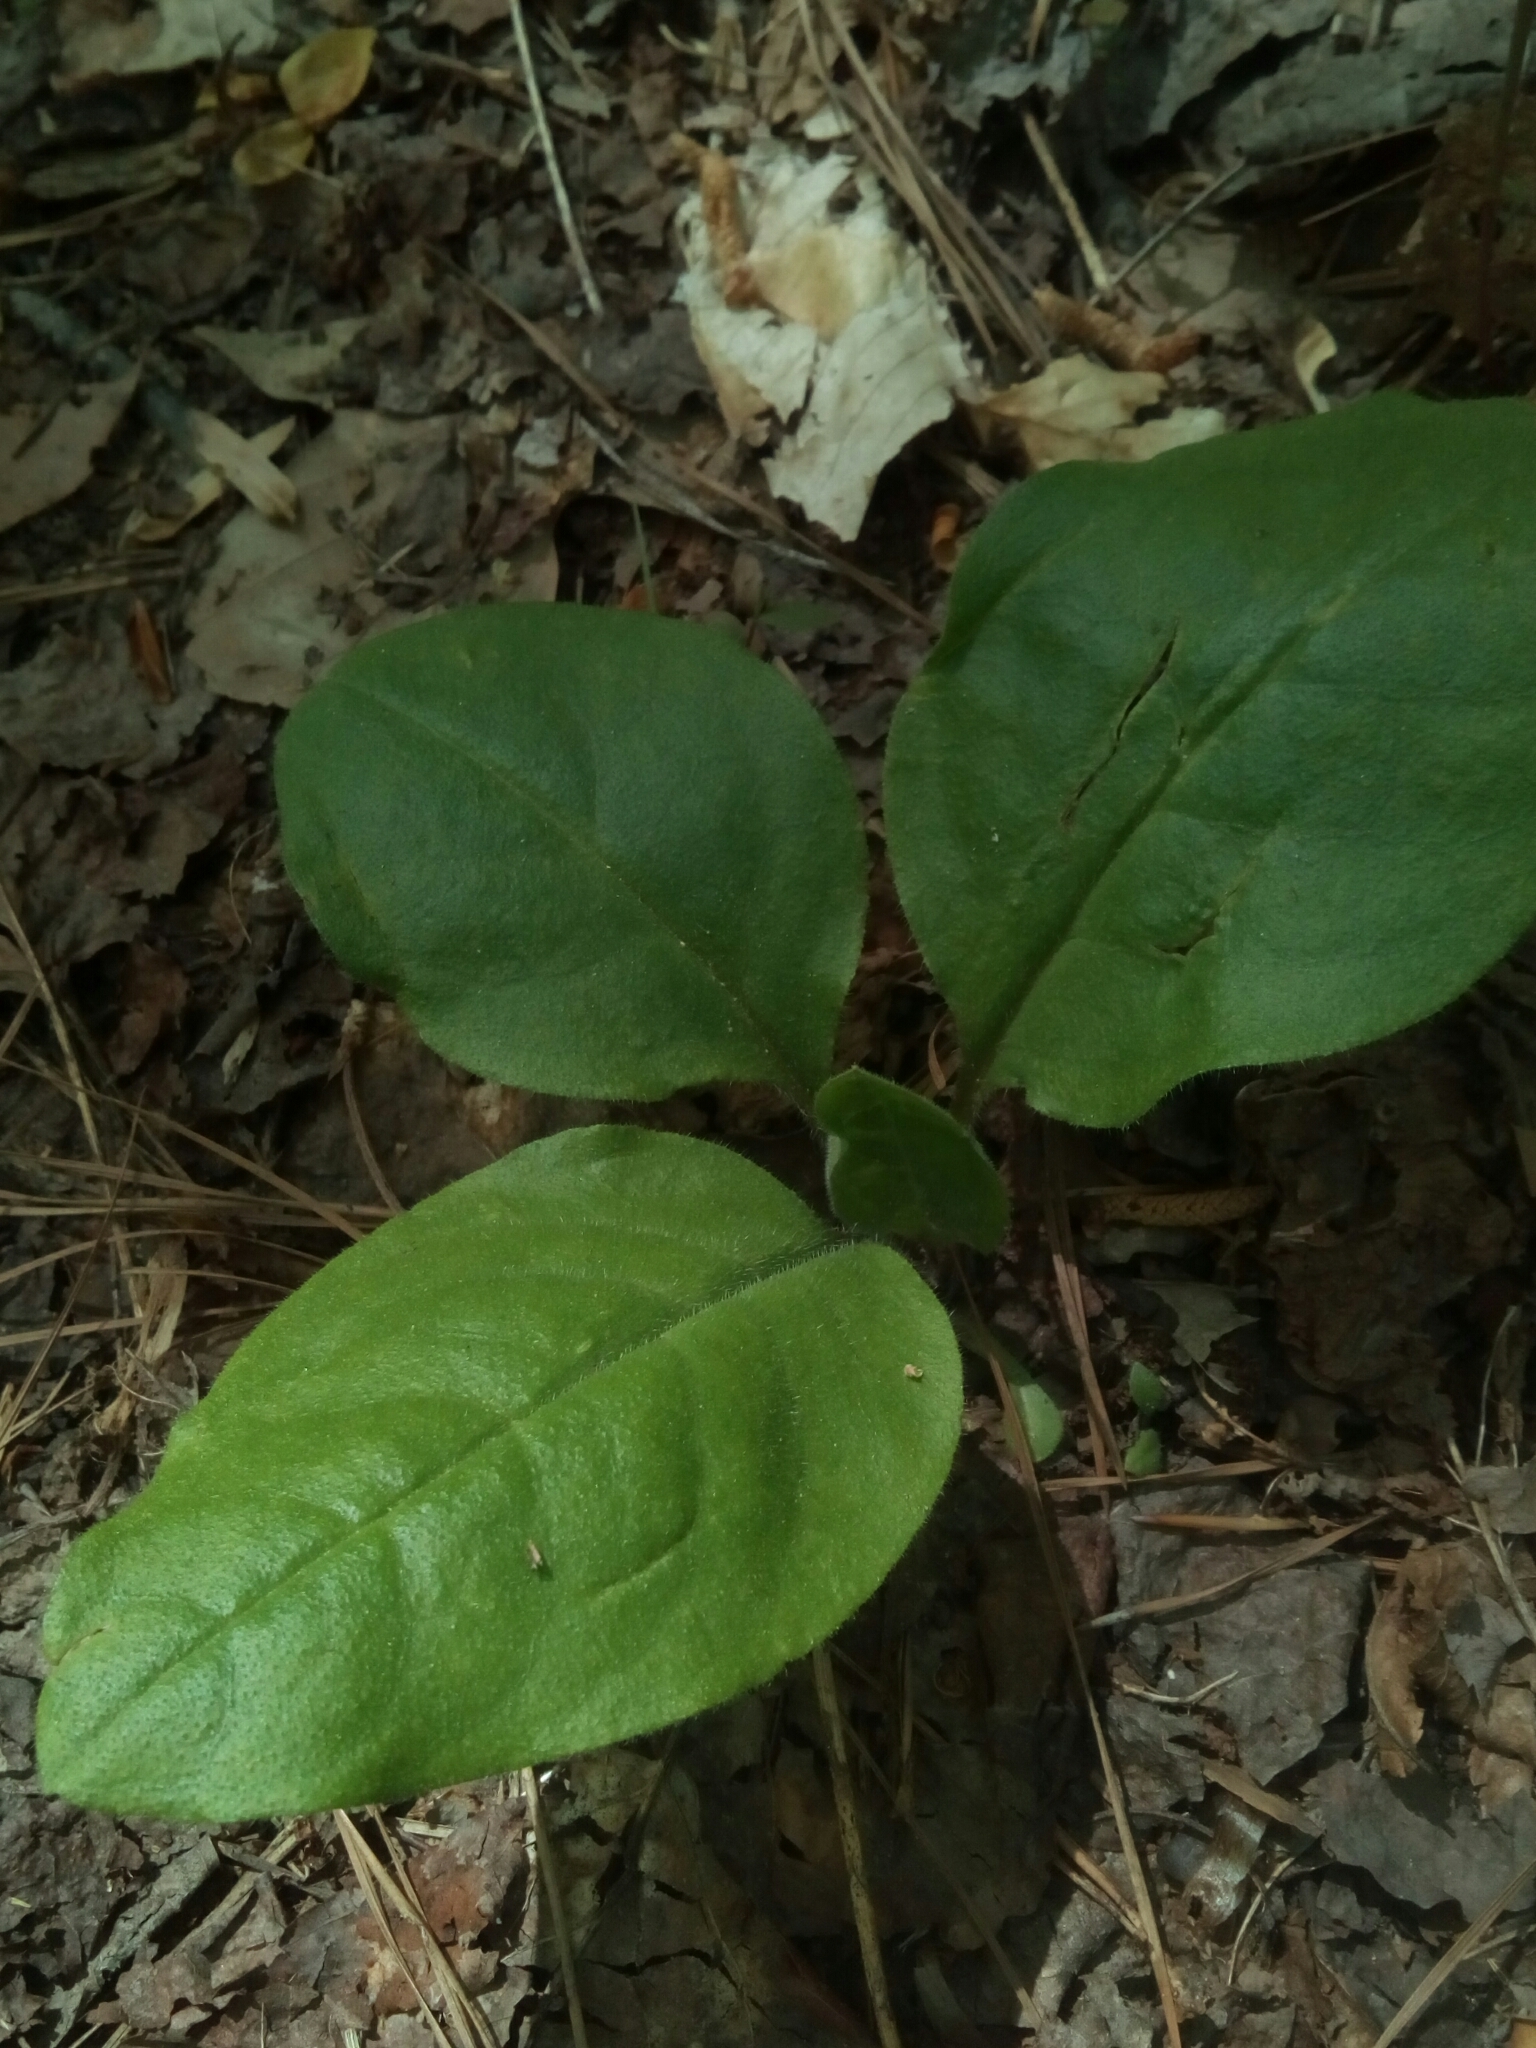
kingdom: Plantae
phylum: Tracheophyta
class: Magnoliopsida
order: Boraginales
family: Boraginaceae
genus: Andersonglossum
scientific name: Andersonglossum virginianum
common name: Wild comfrey
